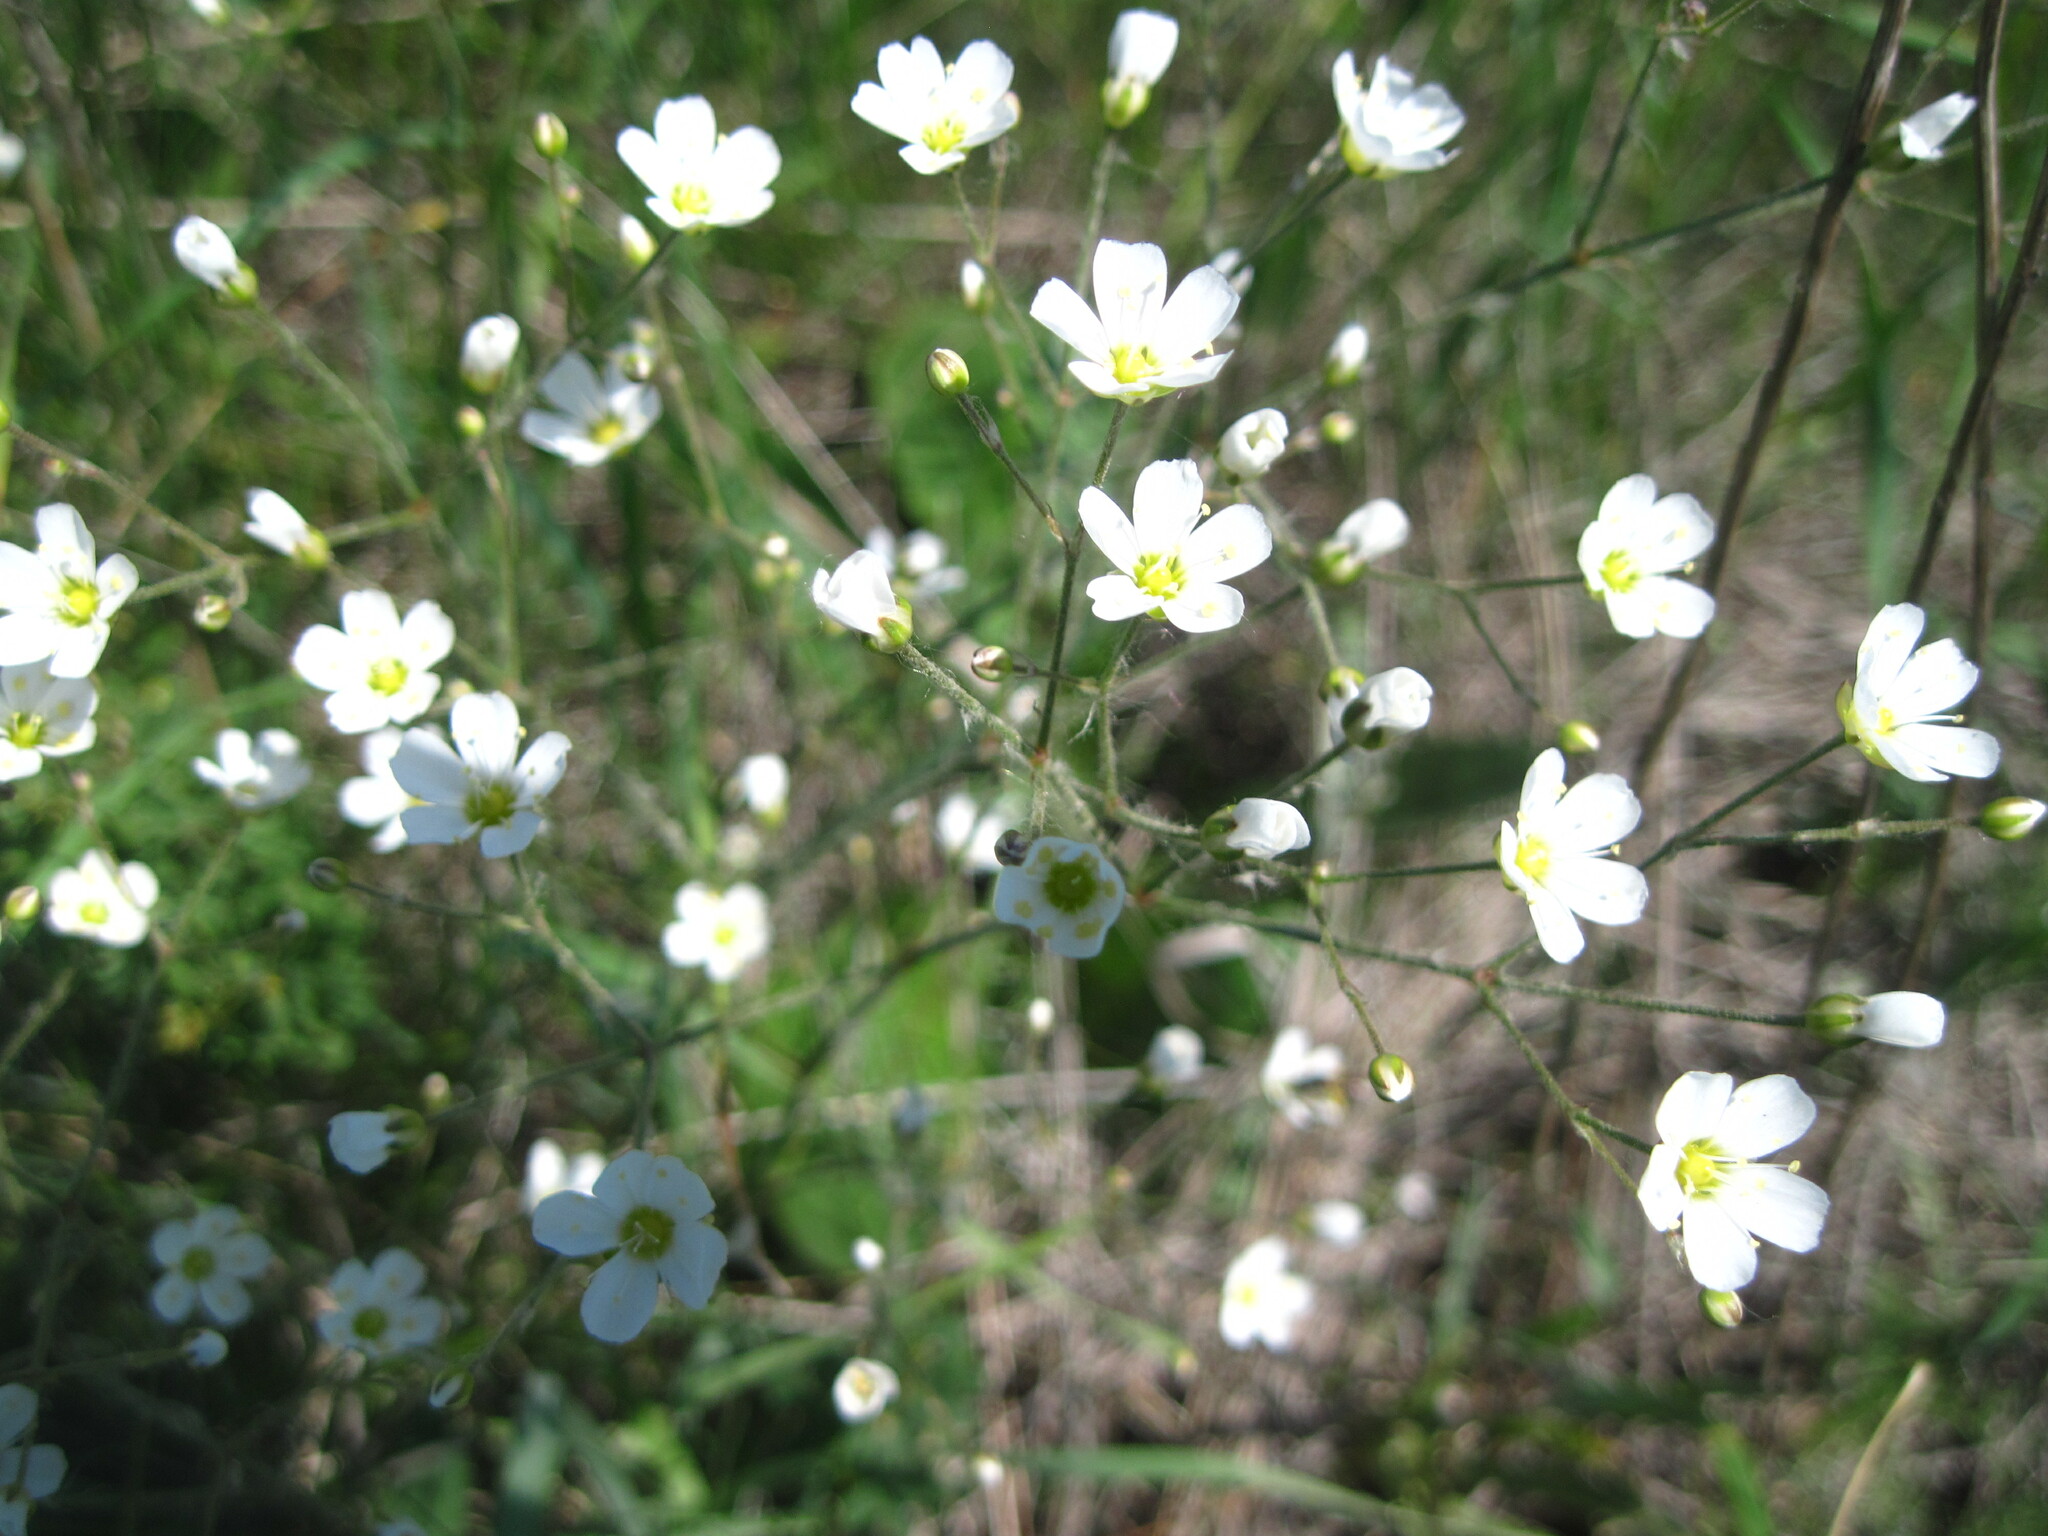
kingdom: Plantae
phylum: Tracheophyta
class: Magnoliopsida
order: Caryophyllales
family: Caryophyllaceae
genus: Eremogone
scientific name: Eremogone biebersteinii
